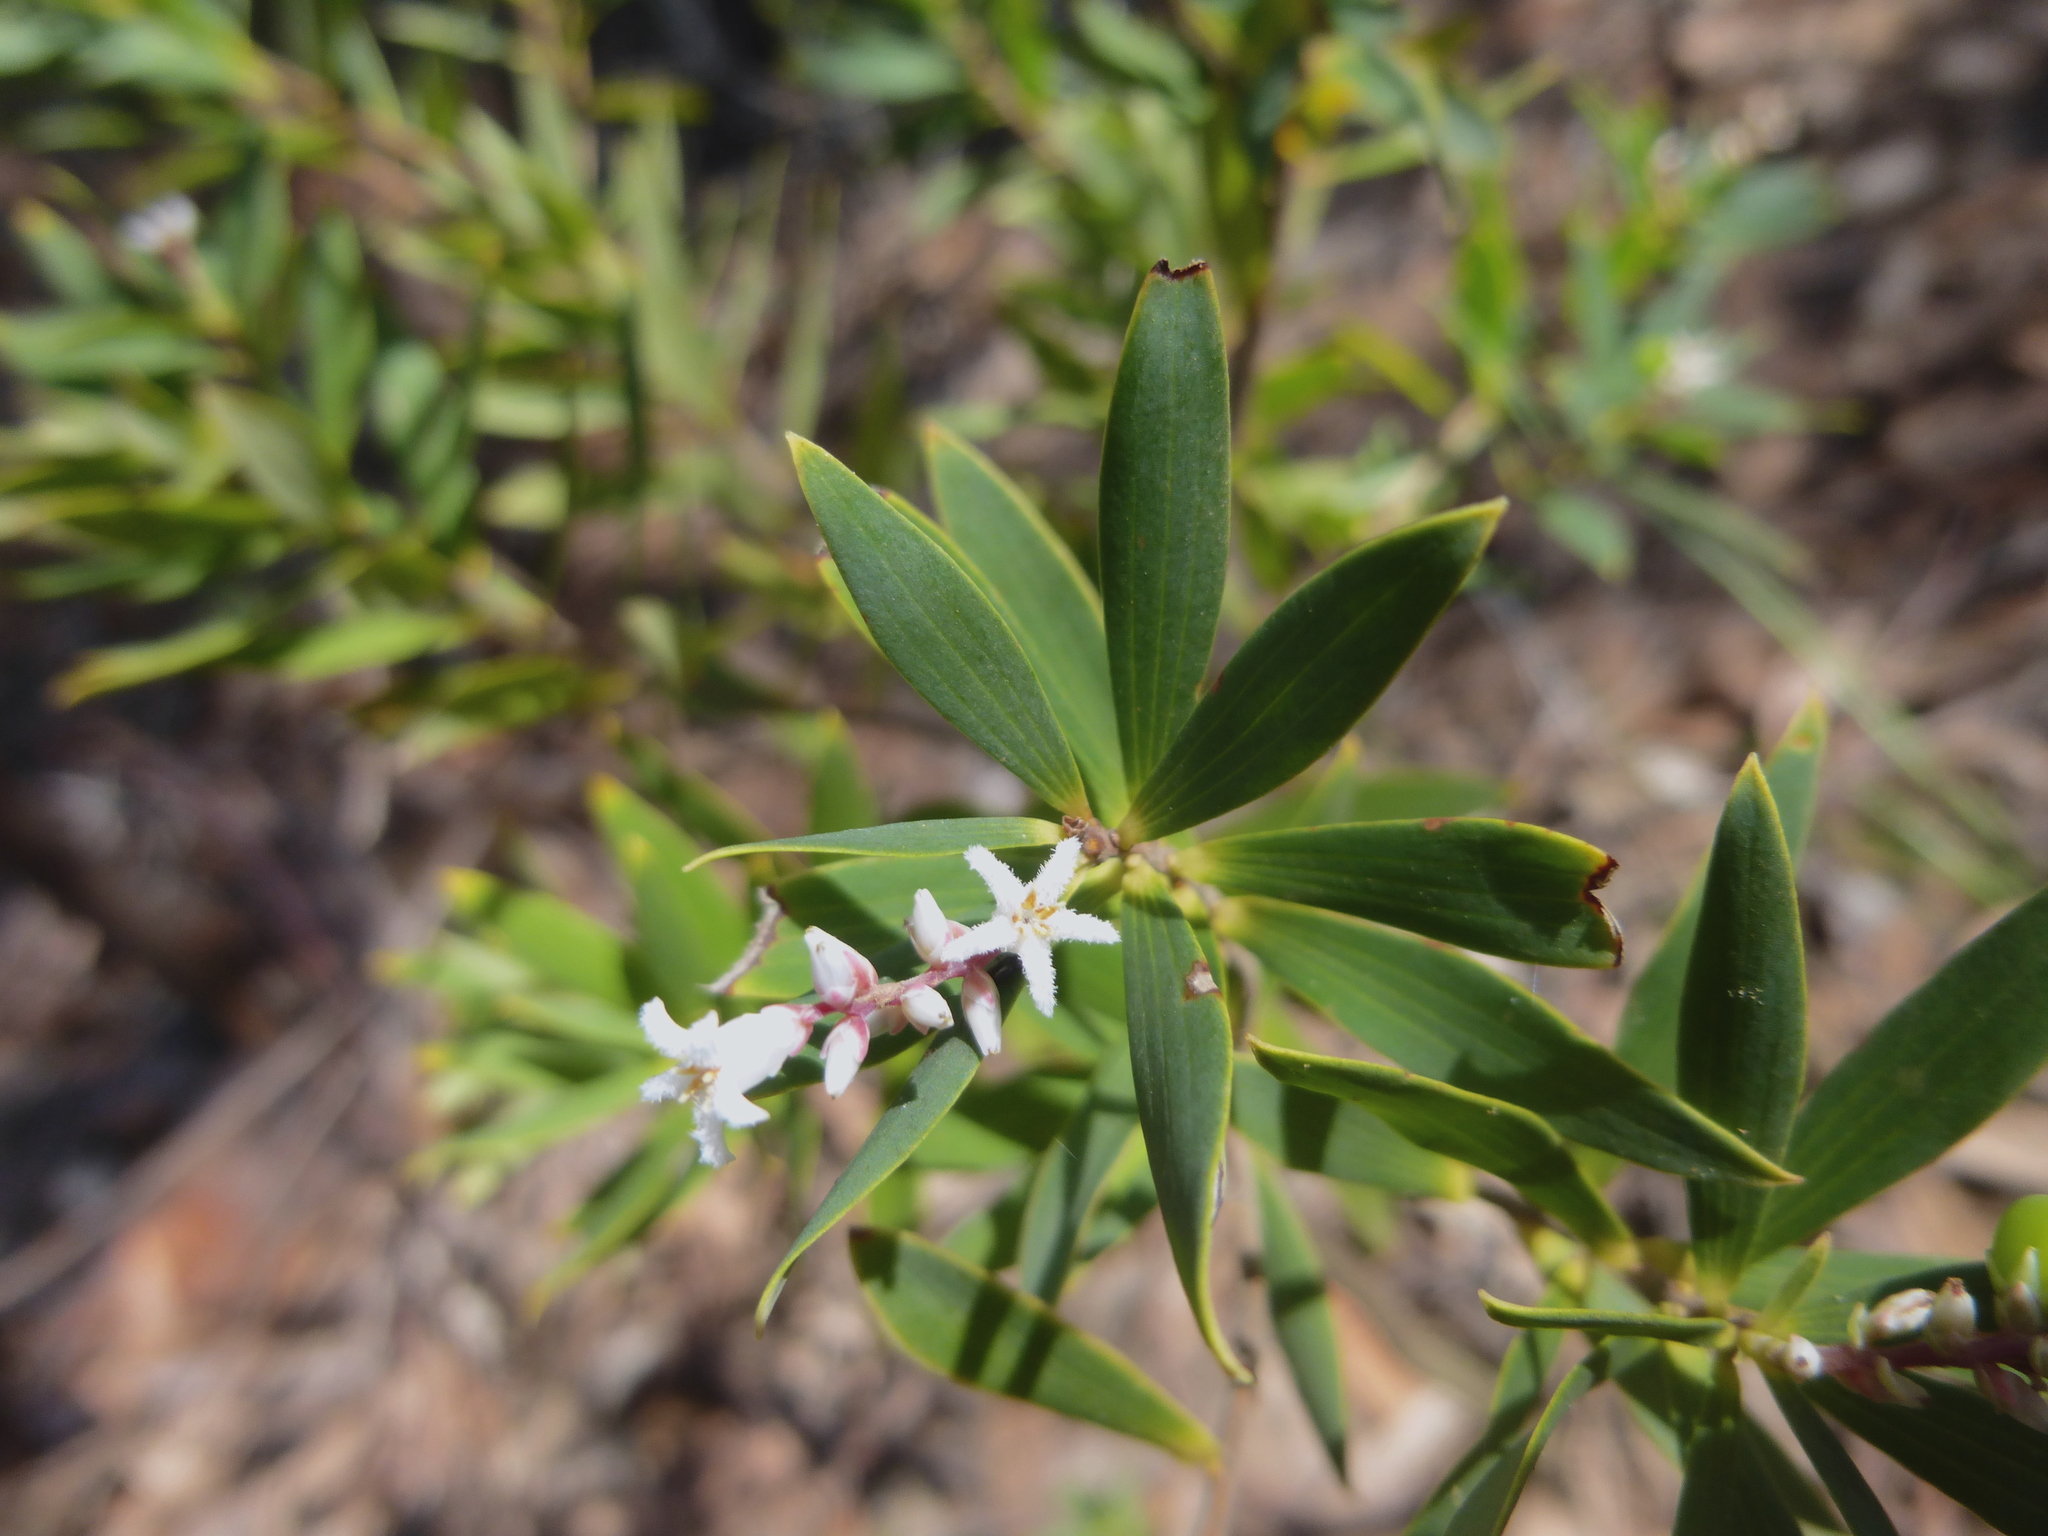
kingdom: Plantae
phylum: Tracheophyta
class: Magnoliopsida
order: Ericales
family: Ericaceae
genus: Leptecophylla
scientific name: Leptecophylla parvifolia
